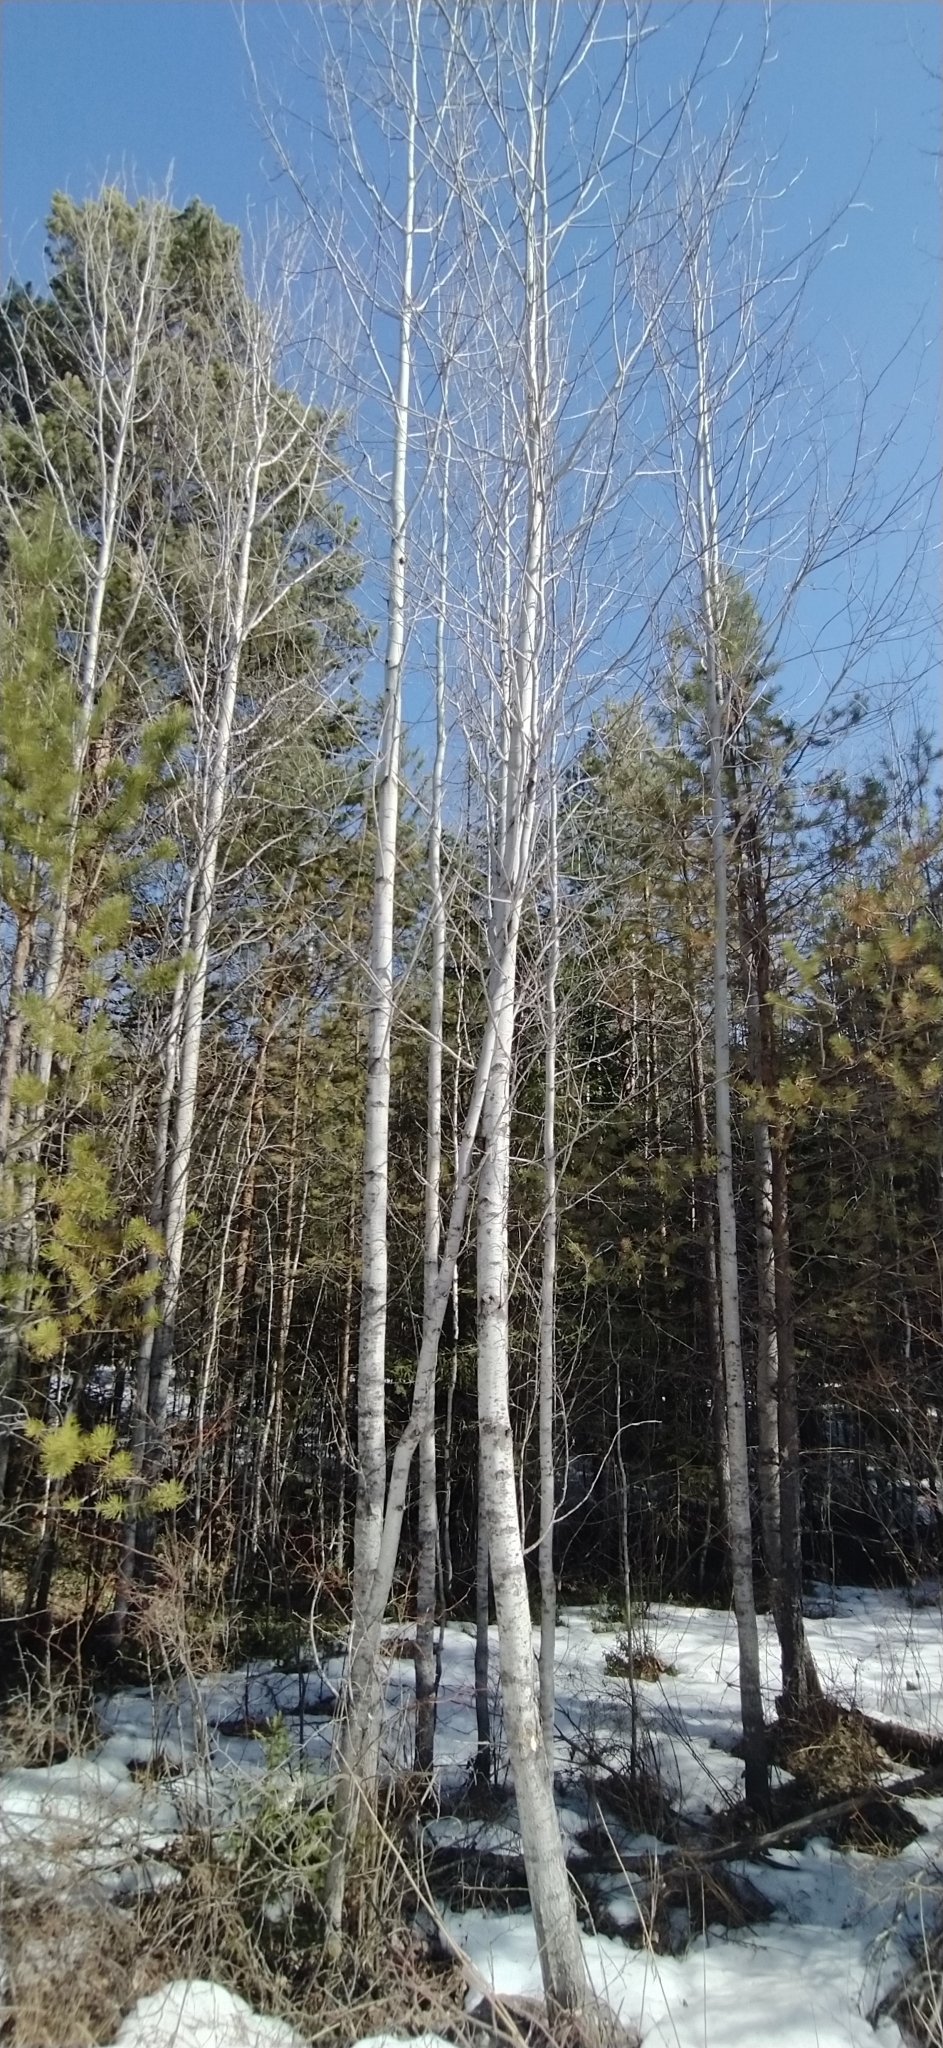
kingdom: Plantae
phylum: Tracheophyta
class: Magnoliopsida
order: Malpighiales
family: Salicaceae
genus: Populus
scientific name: Populus tremula
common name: European aspen
